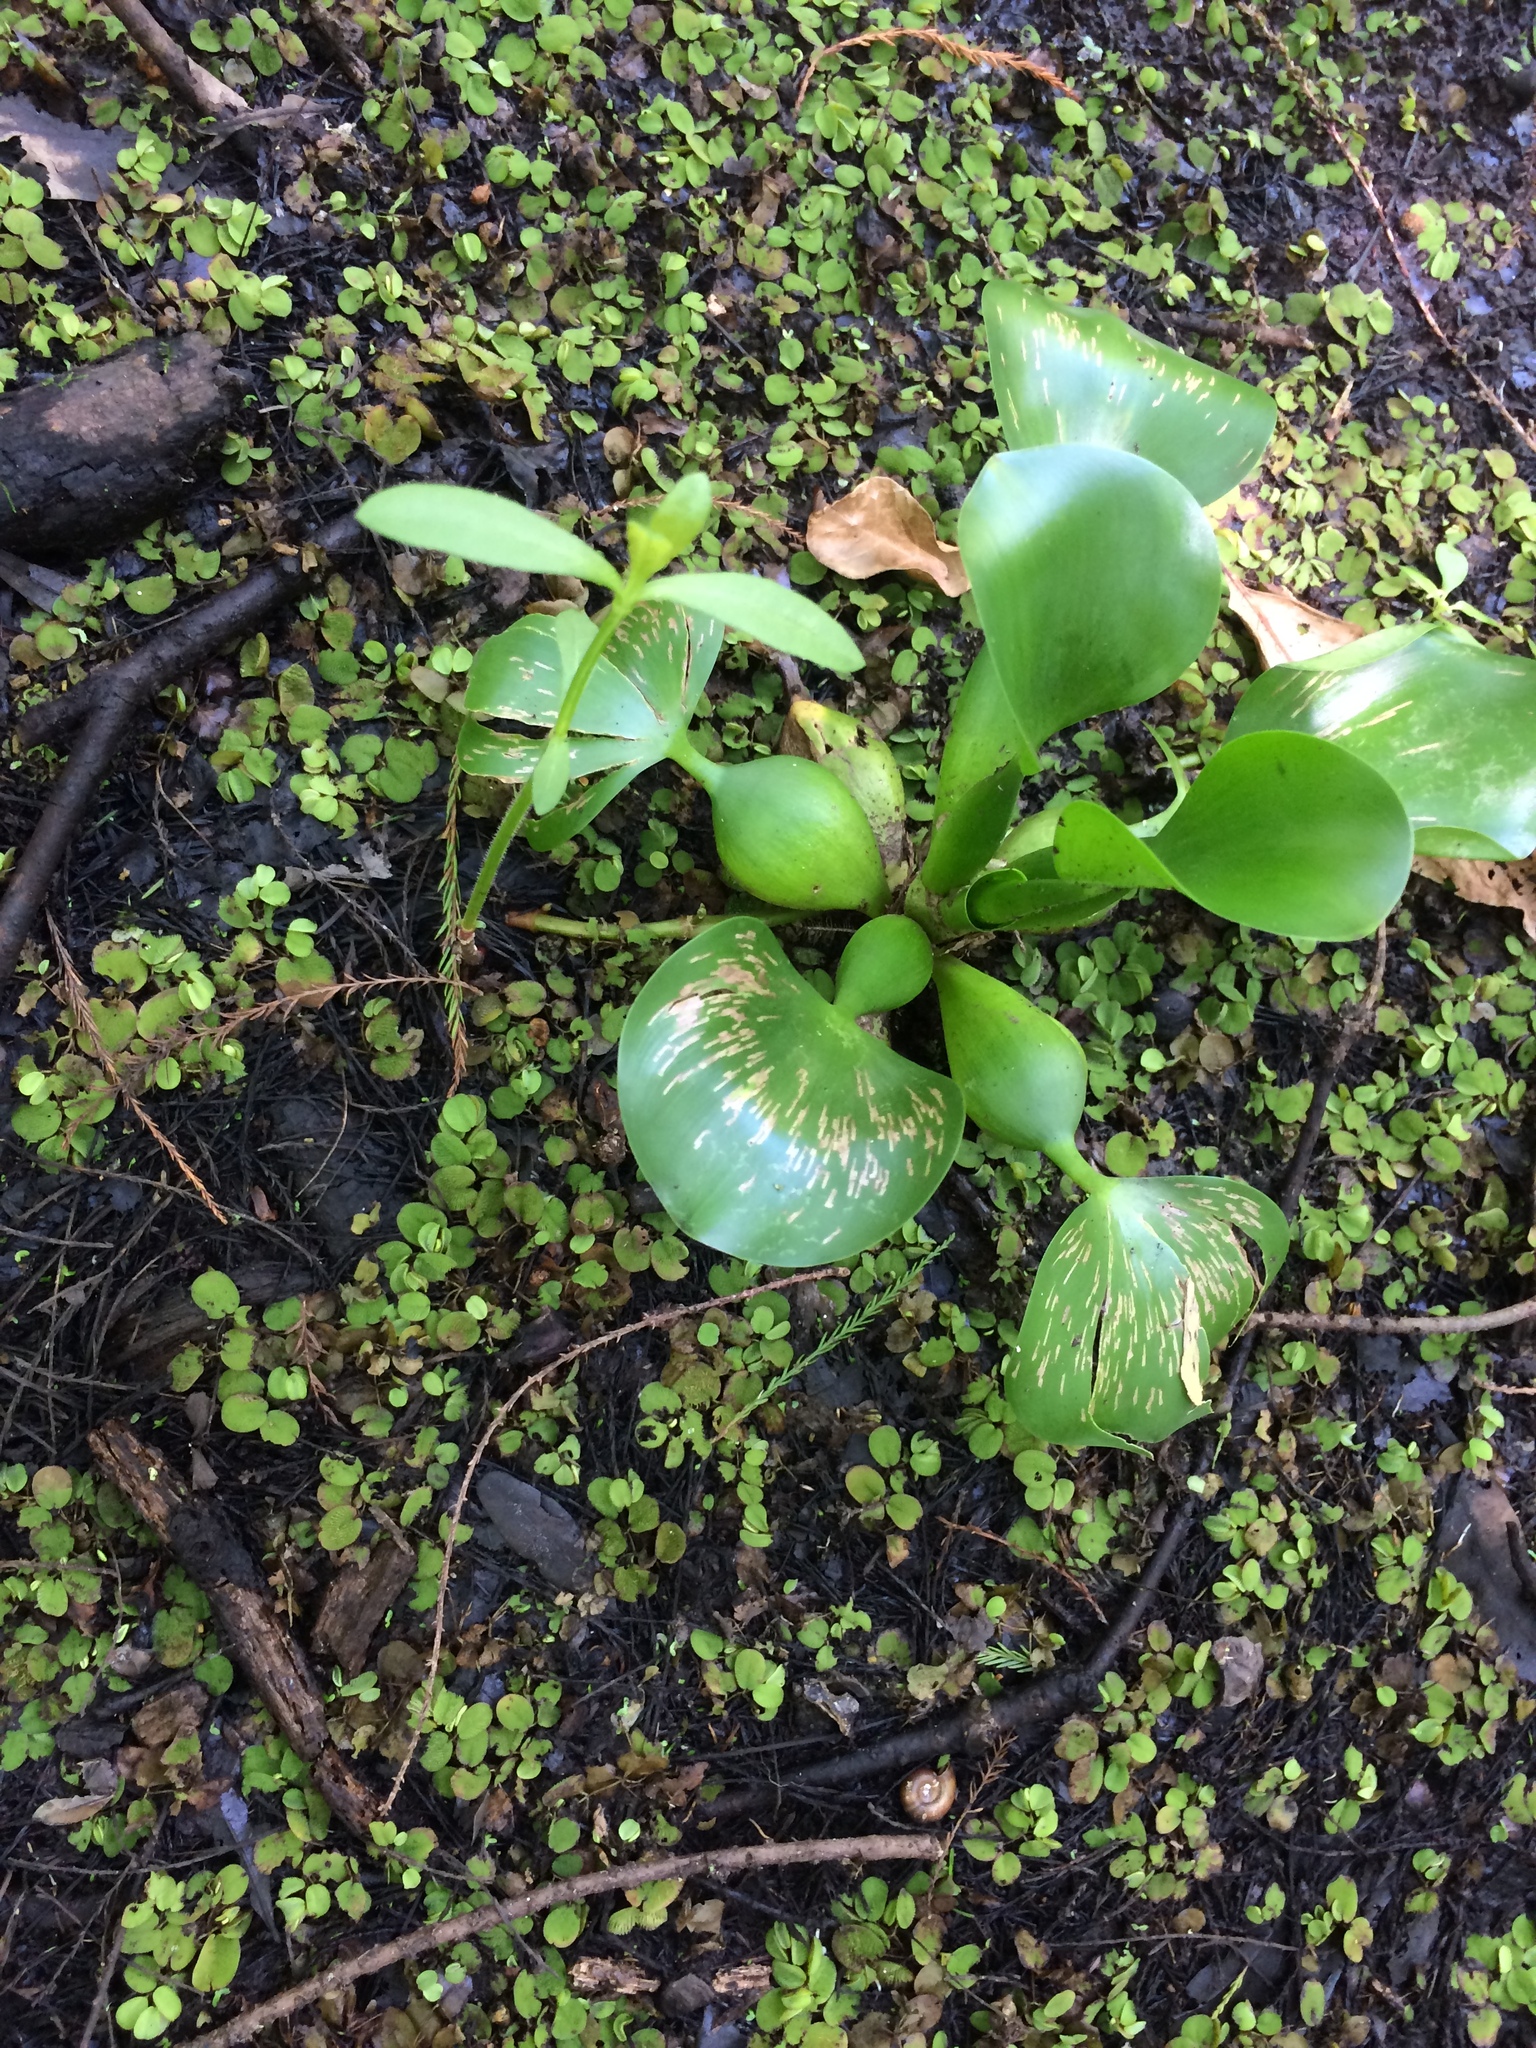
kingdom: Plantae
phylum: Tracheophyta
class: Liliopsida
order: Commelinales
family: Pontederiaceae
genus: Pontederia
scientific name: Pontederia crassipes
